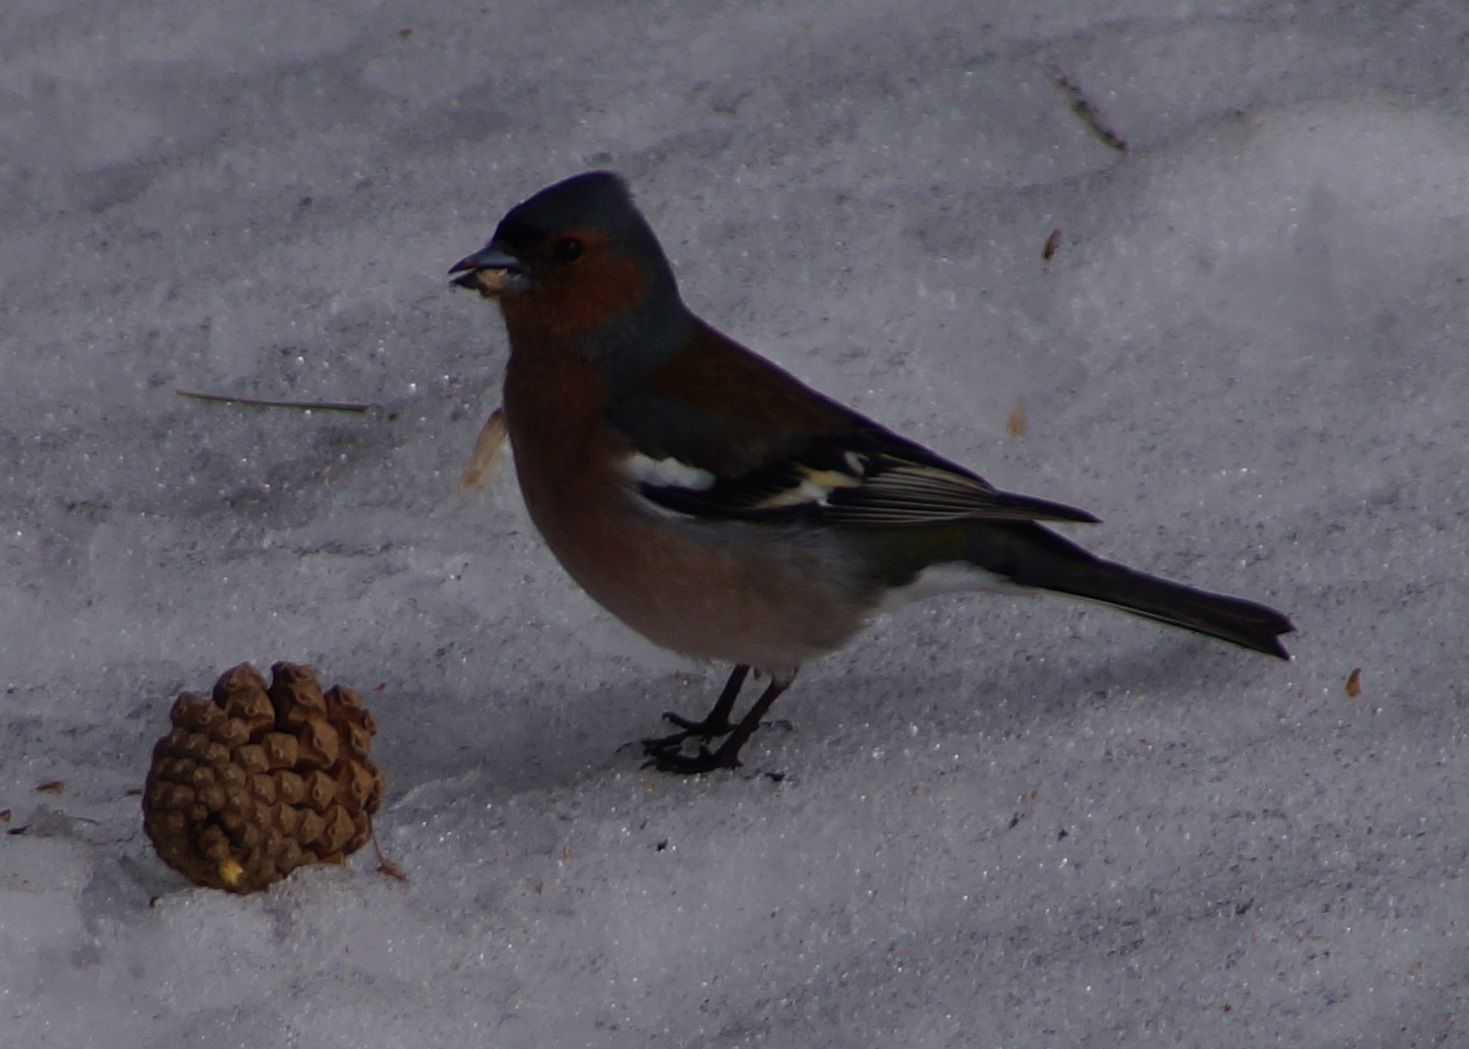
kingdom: Animalia
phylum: Chordata
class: Aves
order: Passeriformes
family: Fringillidae
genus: Fringilla
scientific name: Fringilla coelebs
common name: Common chaffinch
